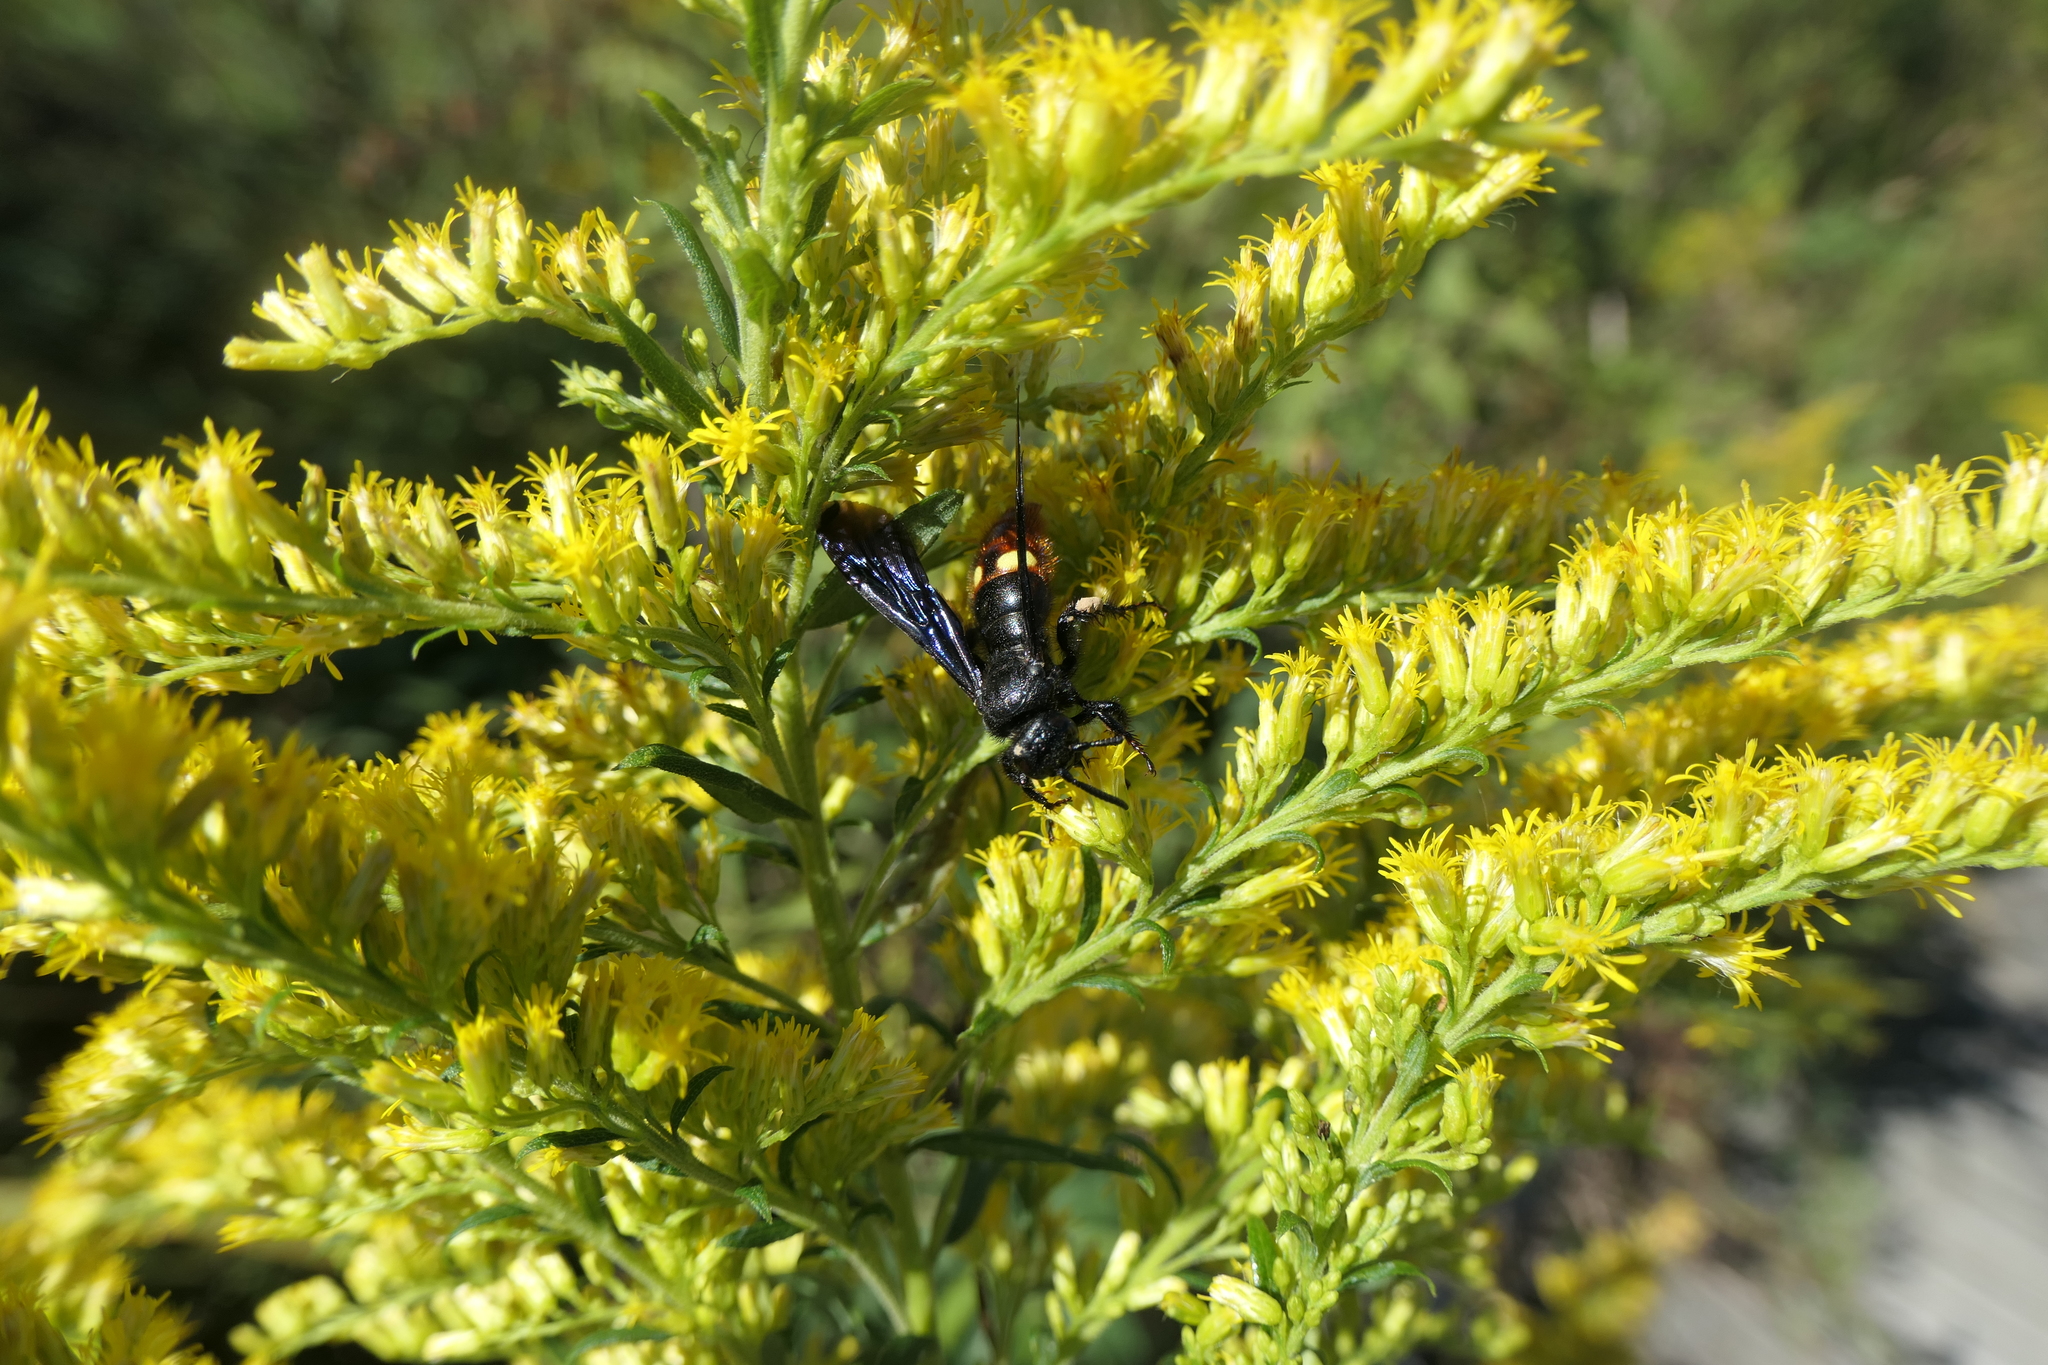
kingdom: Animalia
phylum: Arthropoda
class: Insecta
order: Hymenoptera
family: Scoliidae
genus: Scolia
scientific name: Scolia dubia
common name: Blue-winged scoliid wasp
